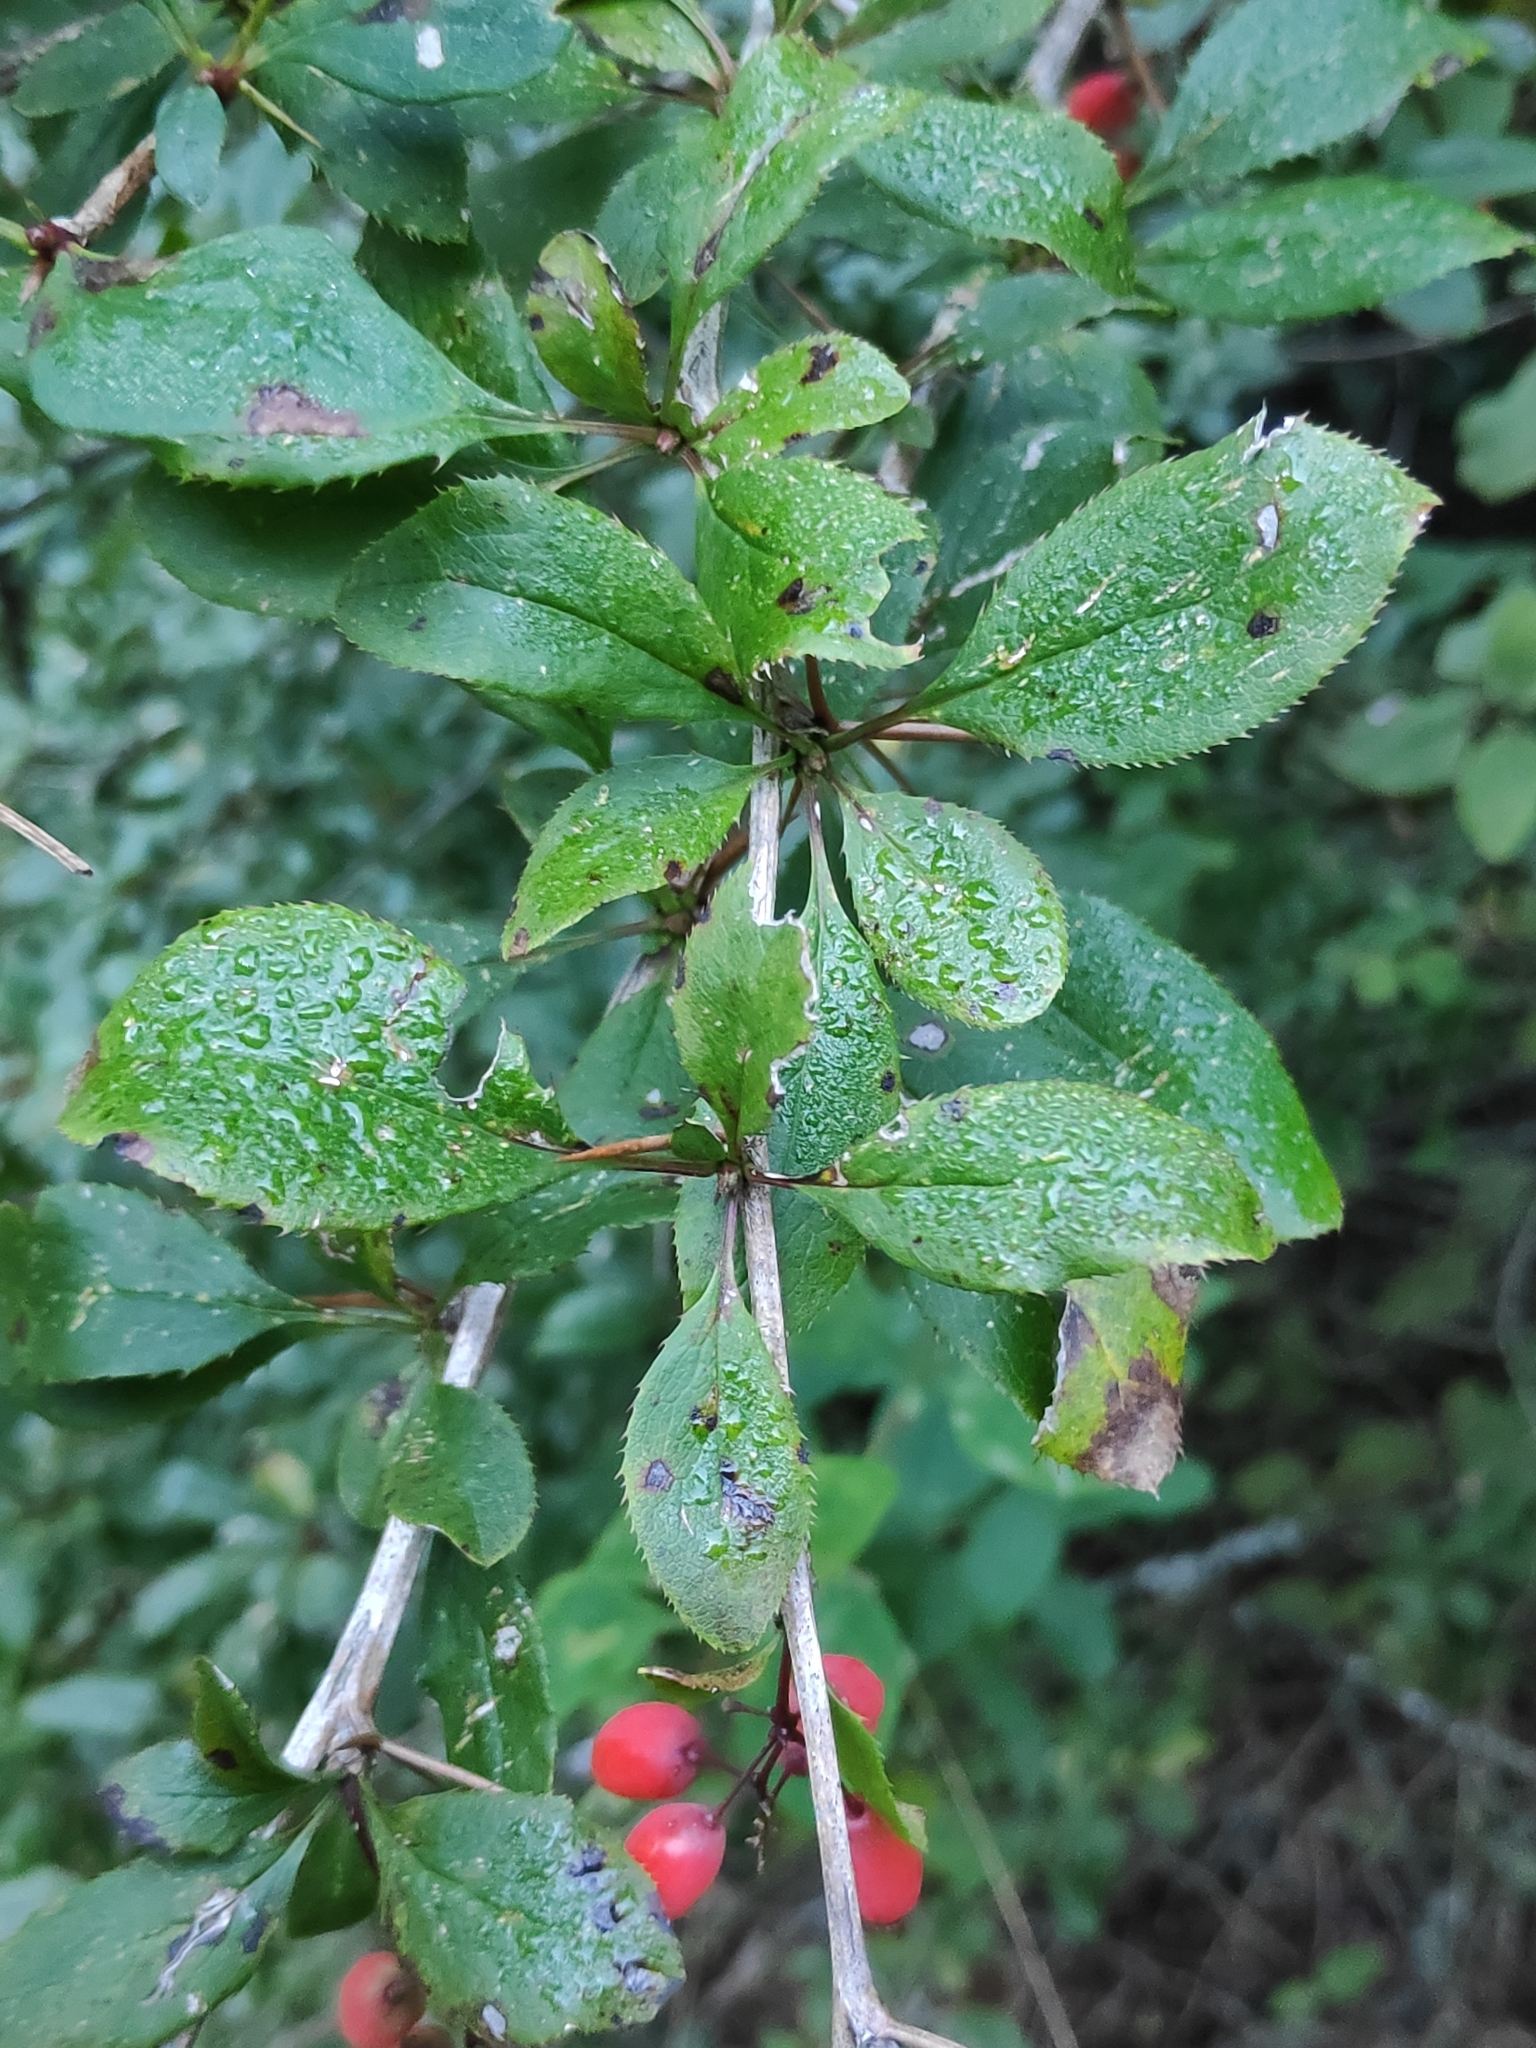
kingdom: Plantae
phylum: Tracheophyta
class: Magnoliopsida
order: Ranunculales
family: Berberidaceae
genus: Berberis
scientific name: Berberis vulgaris
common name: Barberry
